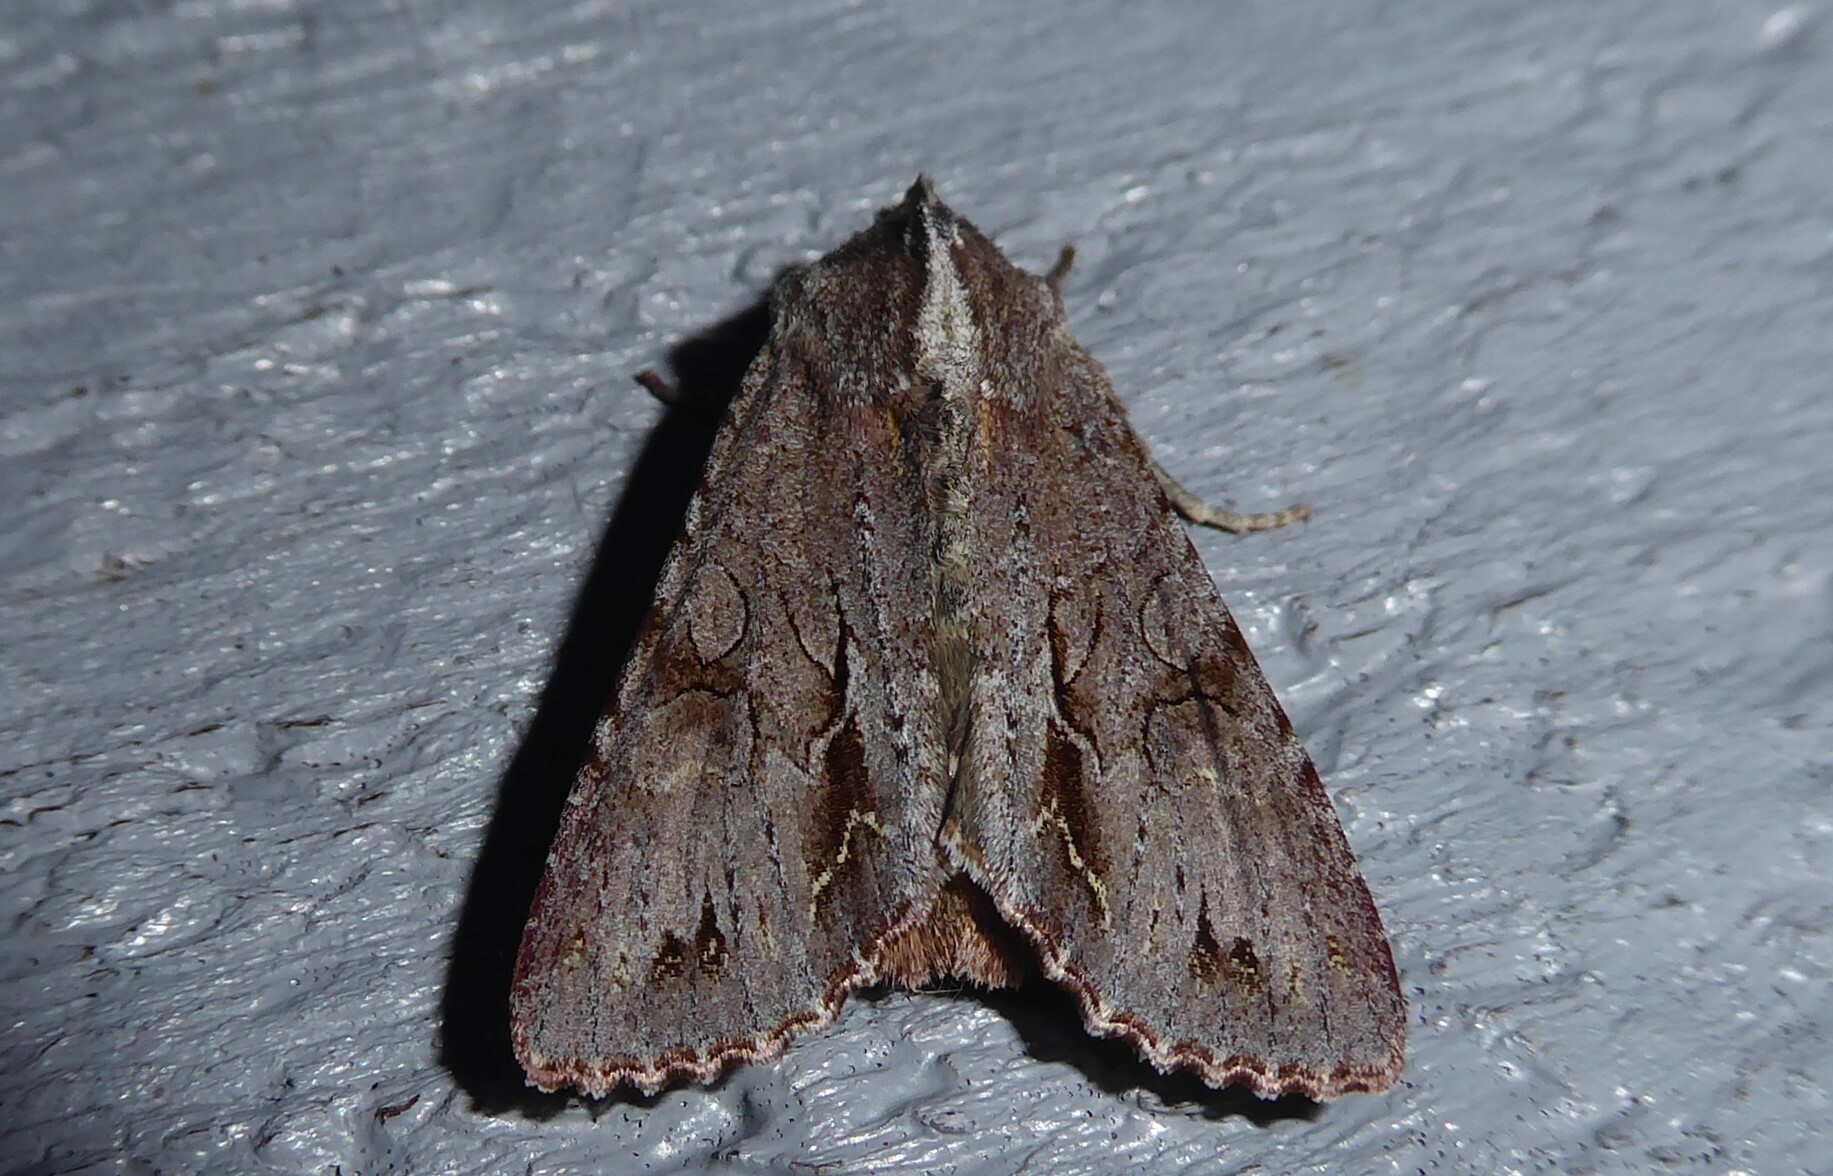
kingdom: Animalia
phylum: Arthropoda
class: Insecta
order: Lepidoptera
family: Noctuidae
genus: Ichneutica
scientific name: Ichneutica
